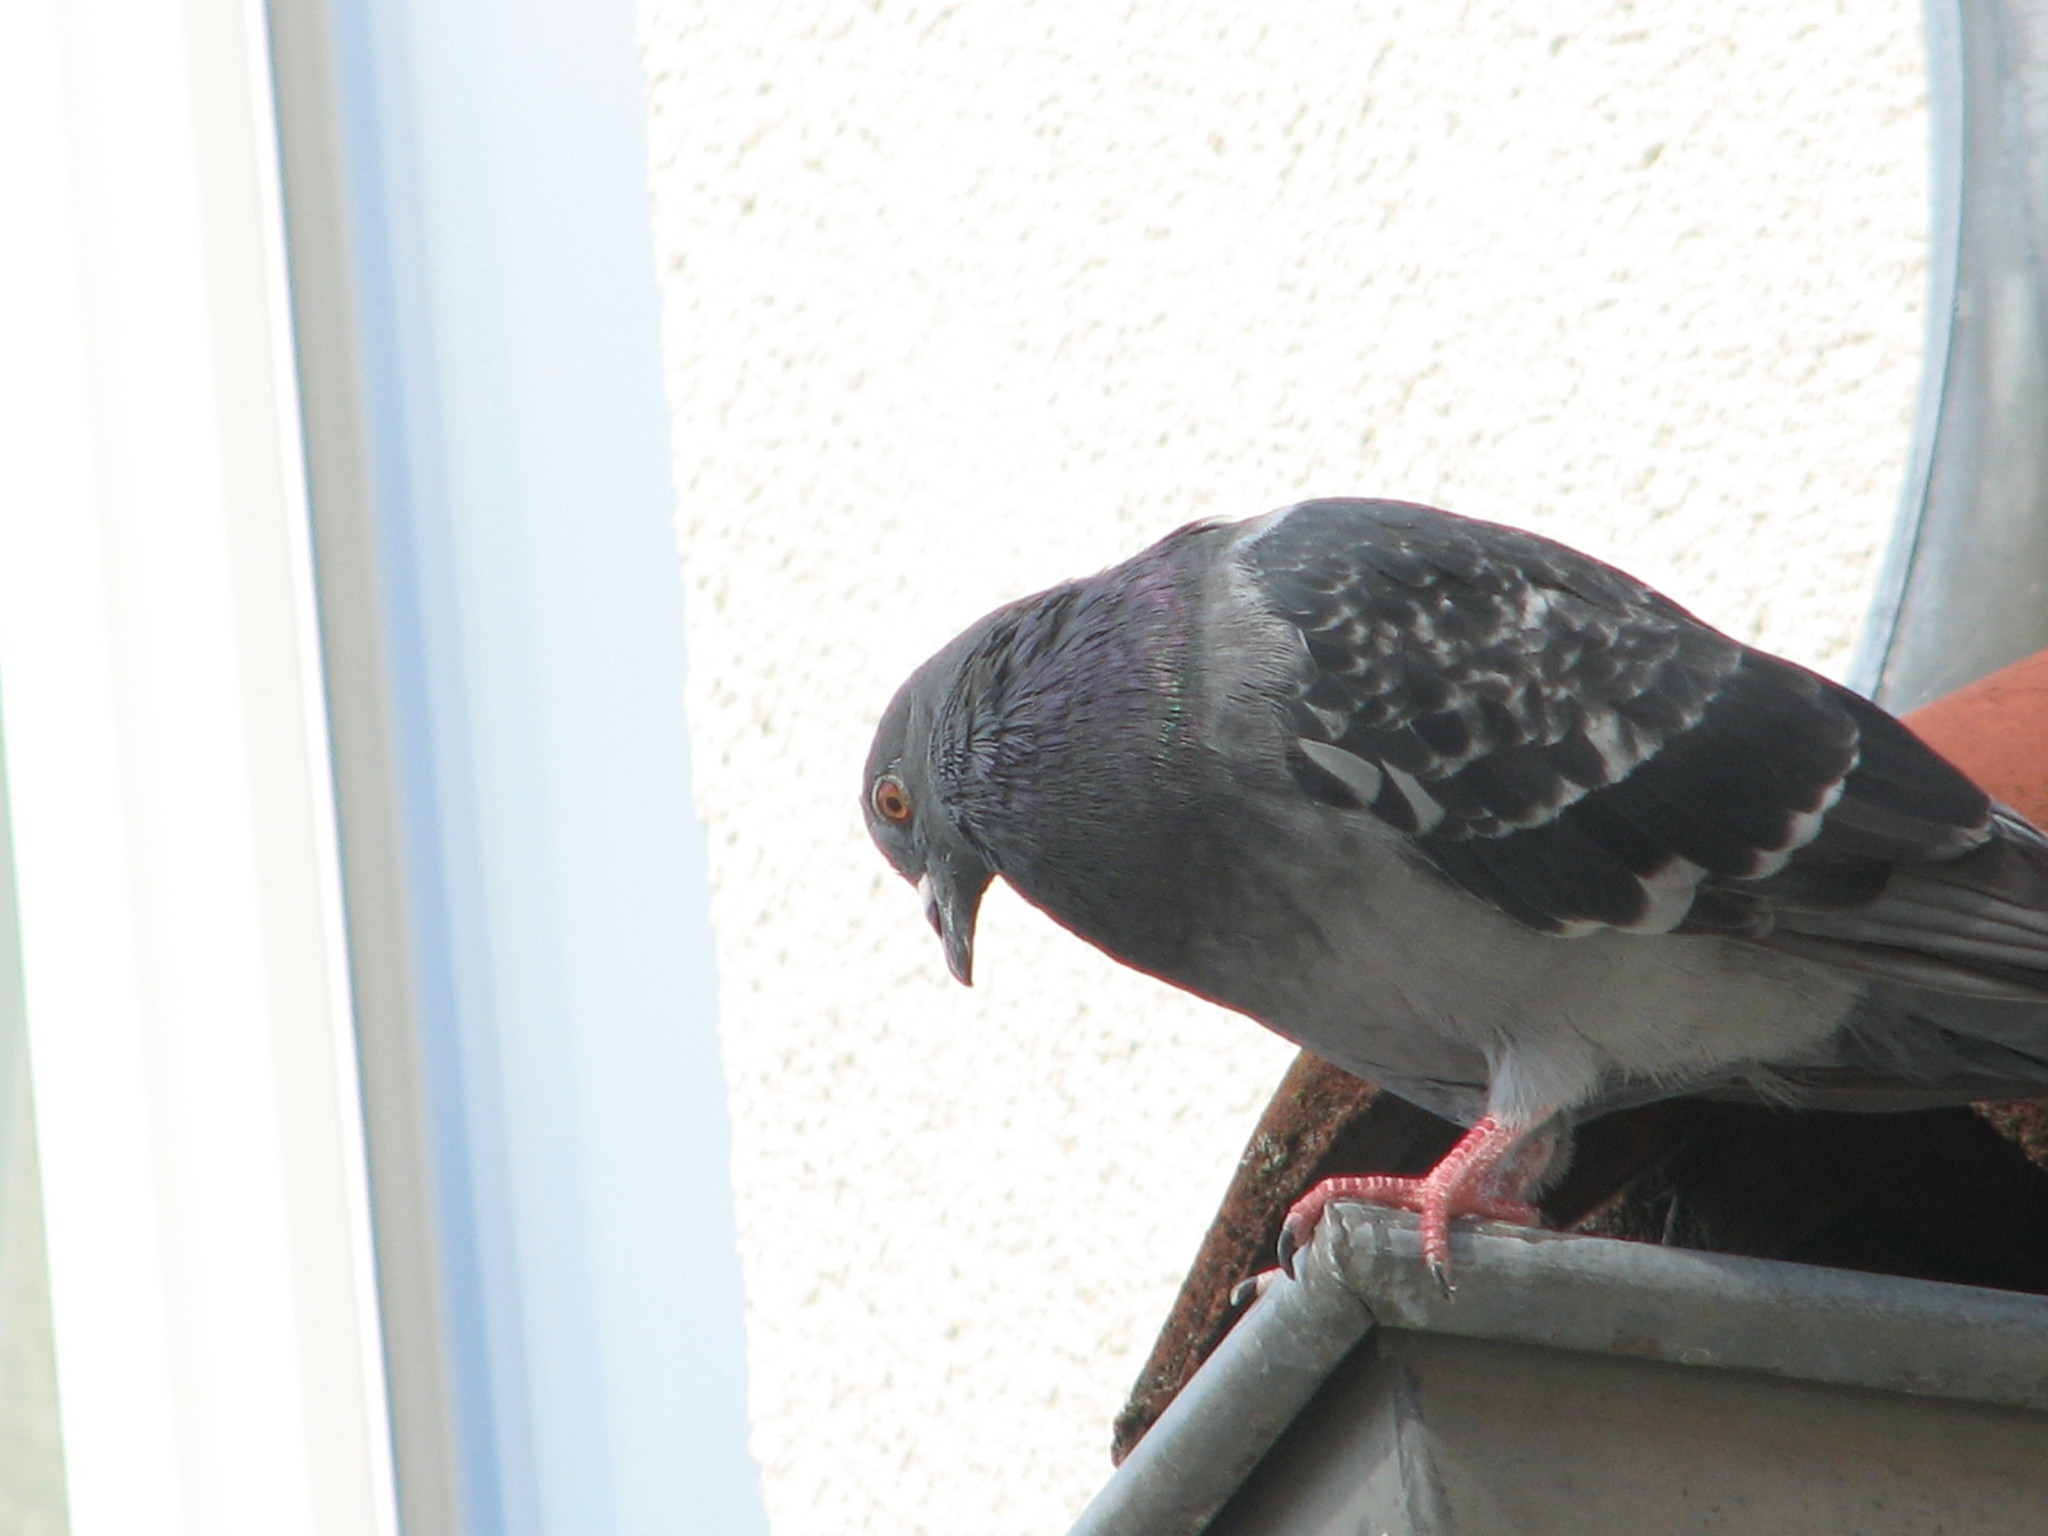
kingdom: Animalia
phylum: Chordata
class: Aves
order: Columbiformes
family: Columbidae
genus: Columba
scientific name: Columba livia
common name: Rock pigeon
